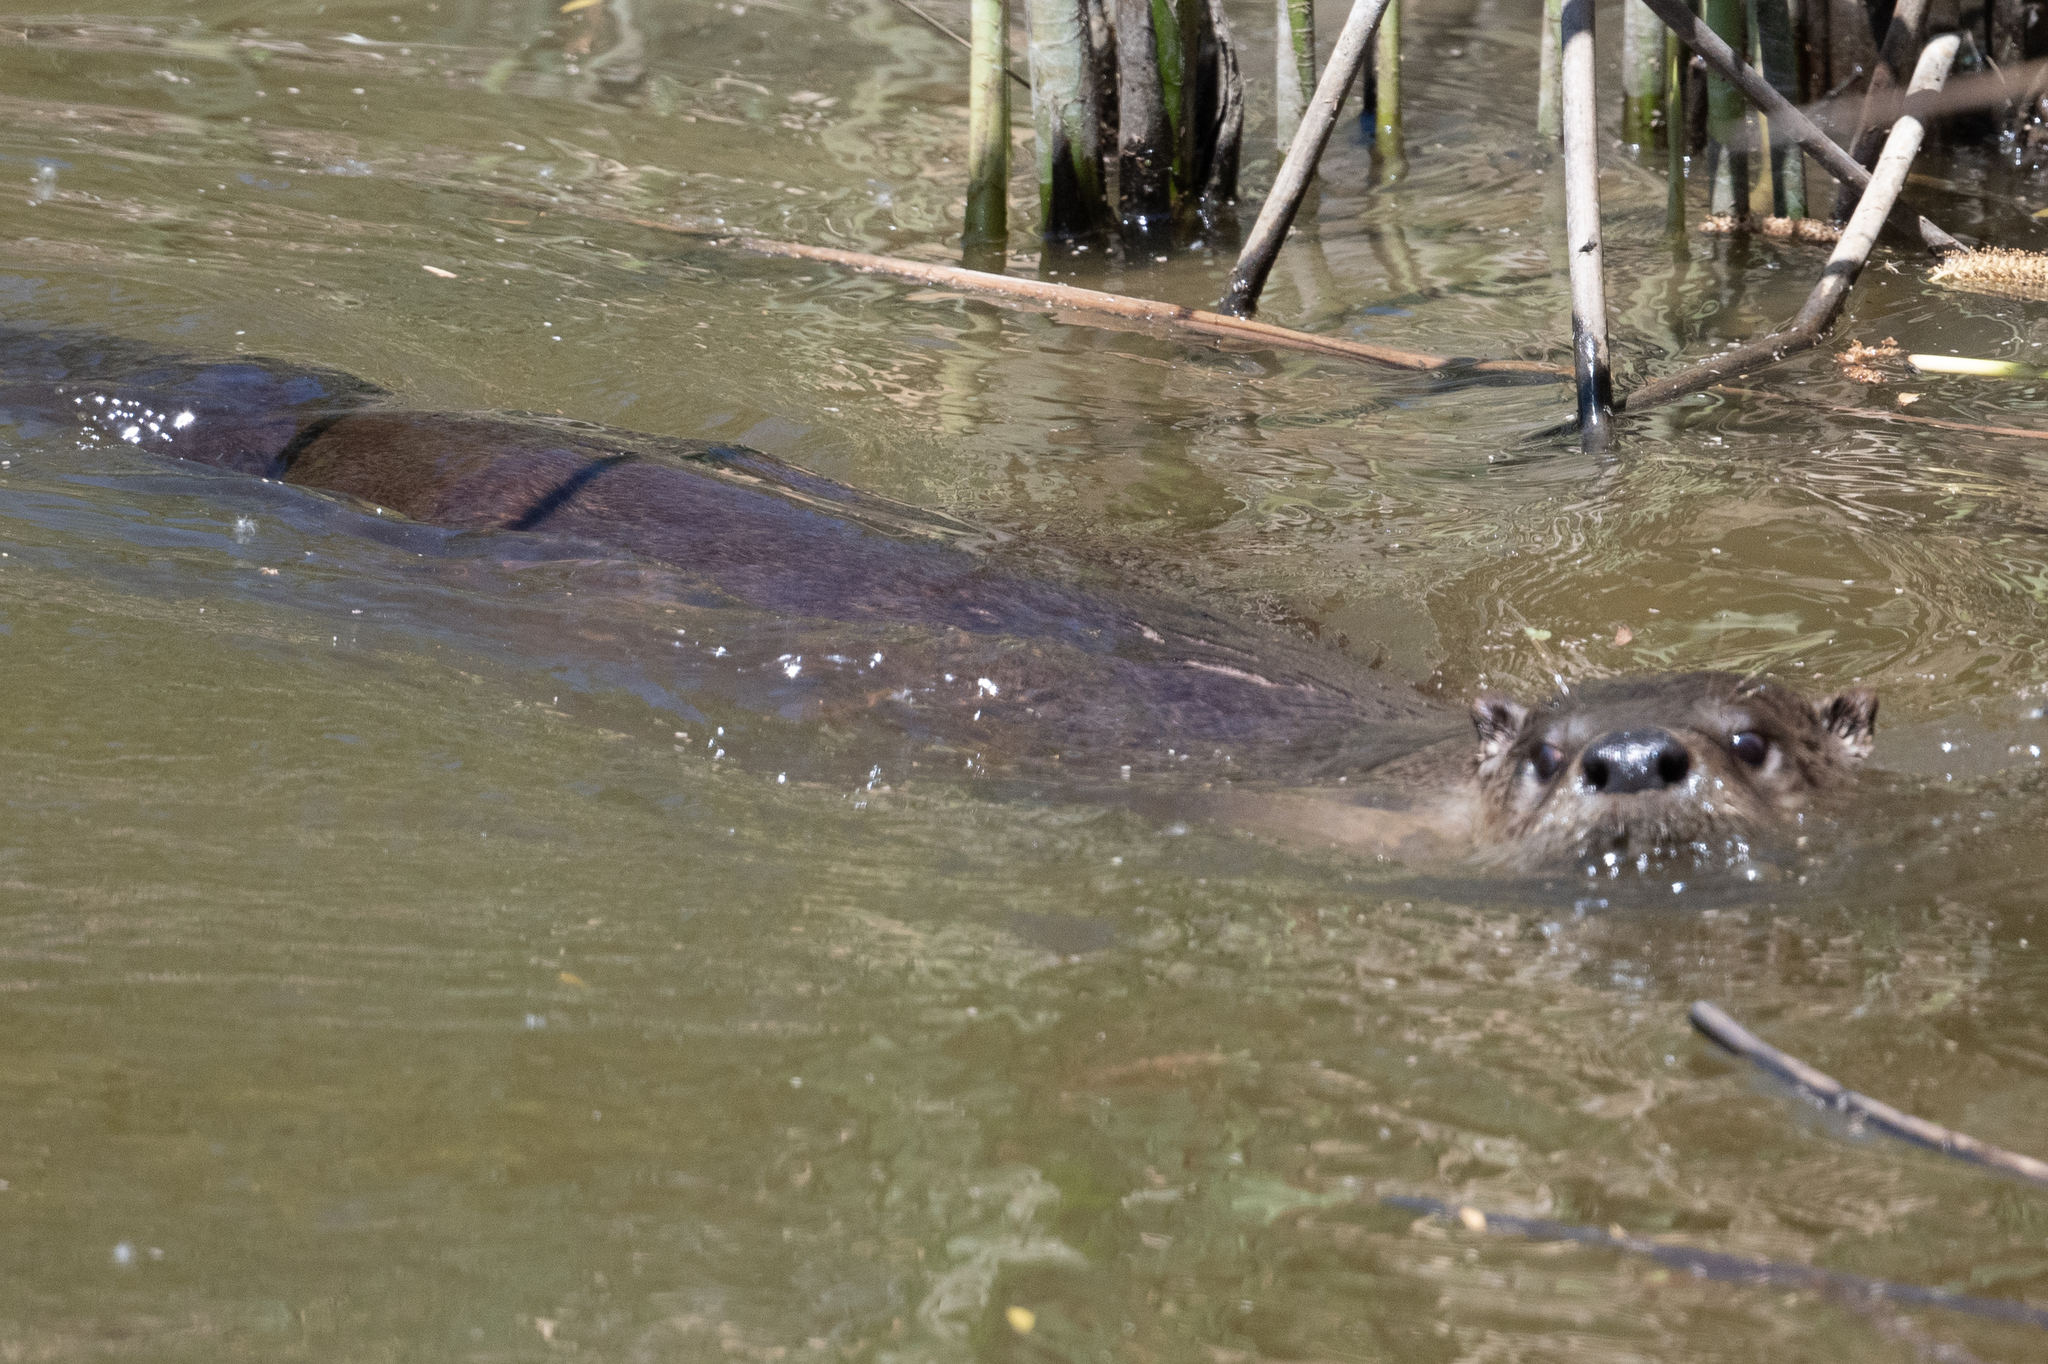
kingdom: Animalia
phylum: Chordata
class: Mammalia
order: Carnivora
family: Mustelidae
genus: Lontra
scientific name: Lontra canadensis
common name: North american river otter
